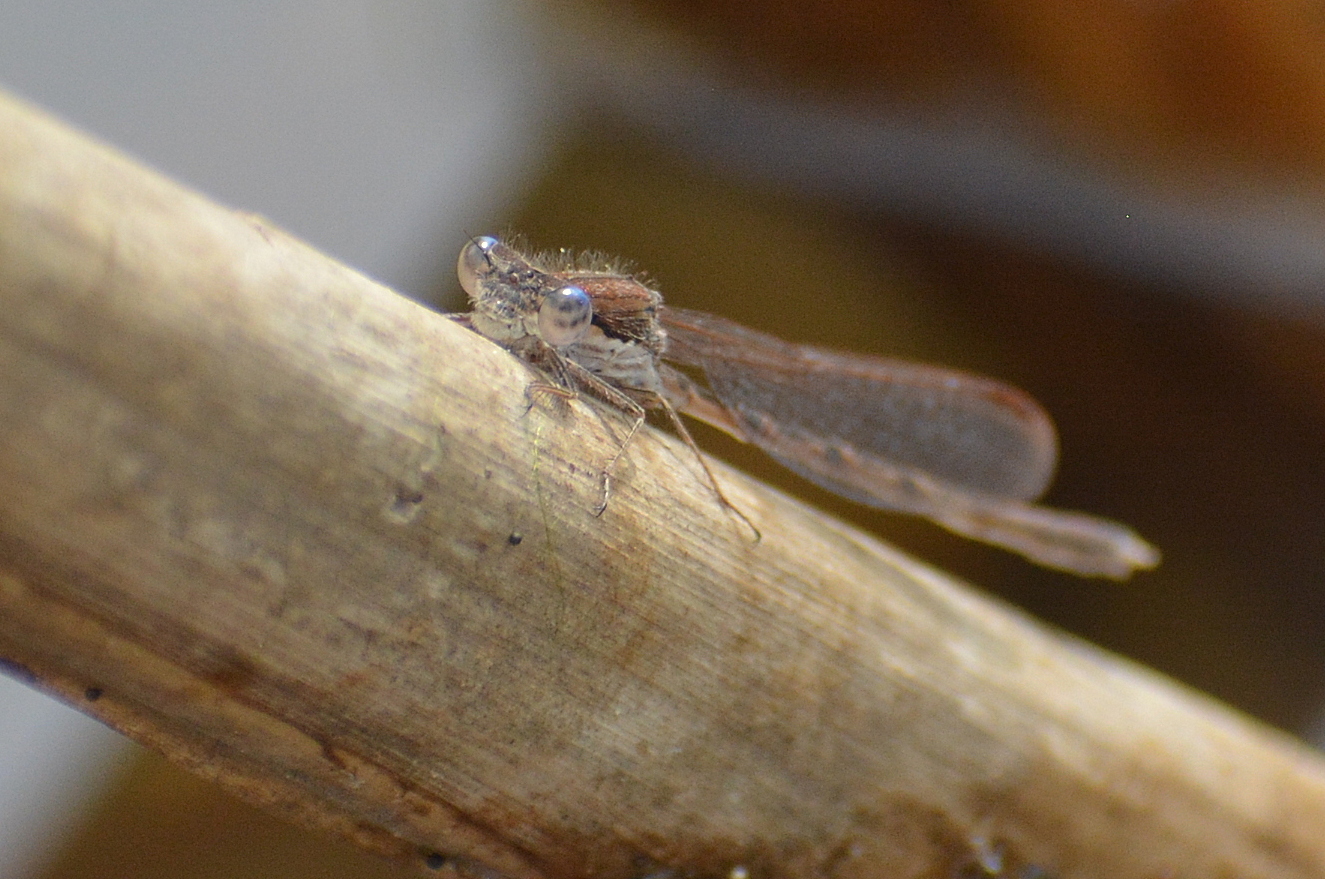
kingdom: Animalia
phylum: Arthropoda
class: Insecta
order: Odonata
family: Lestidae
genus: Sympecma
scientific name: Sympecma fusca
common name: Common winter damsel
